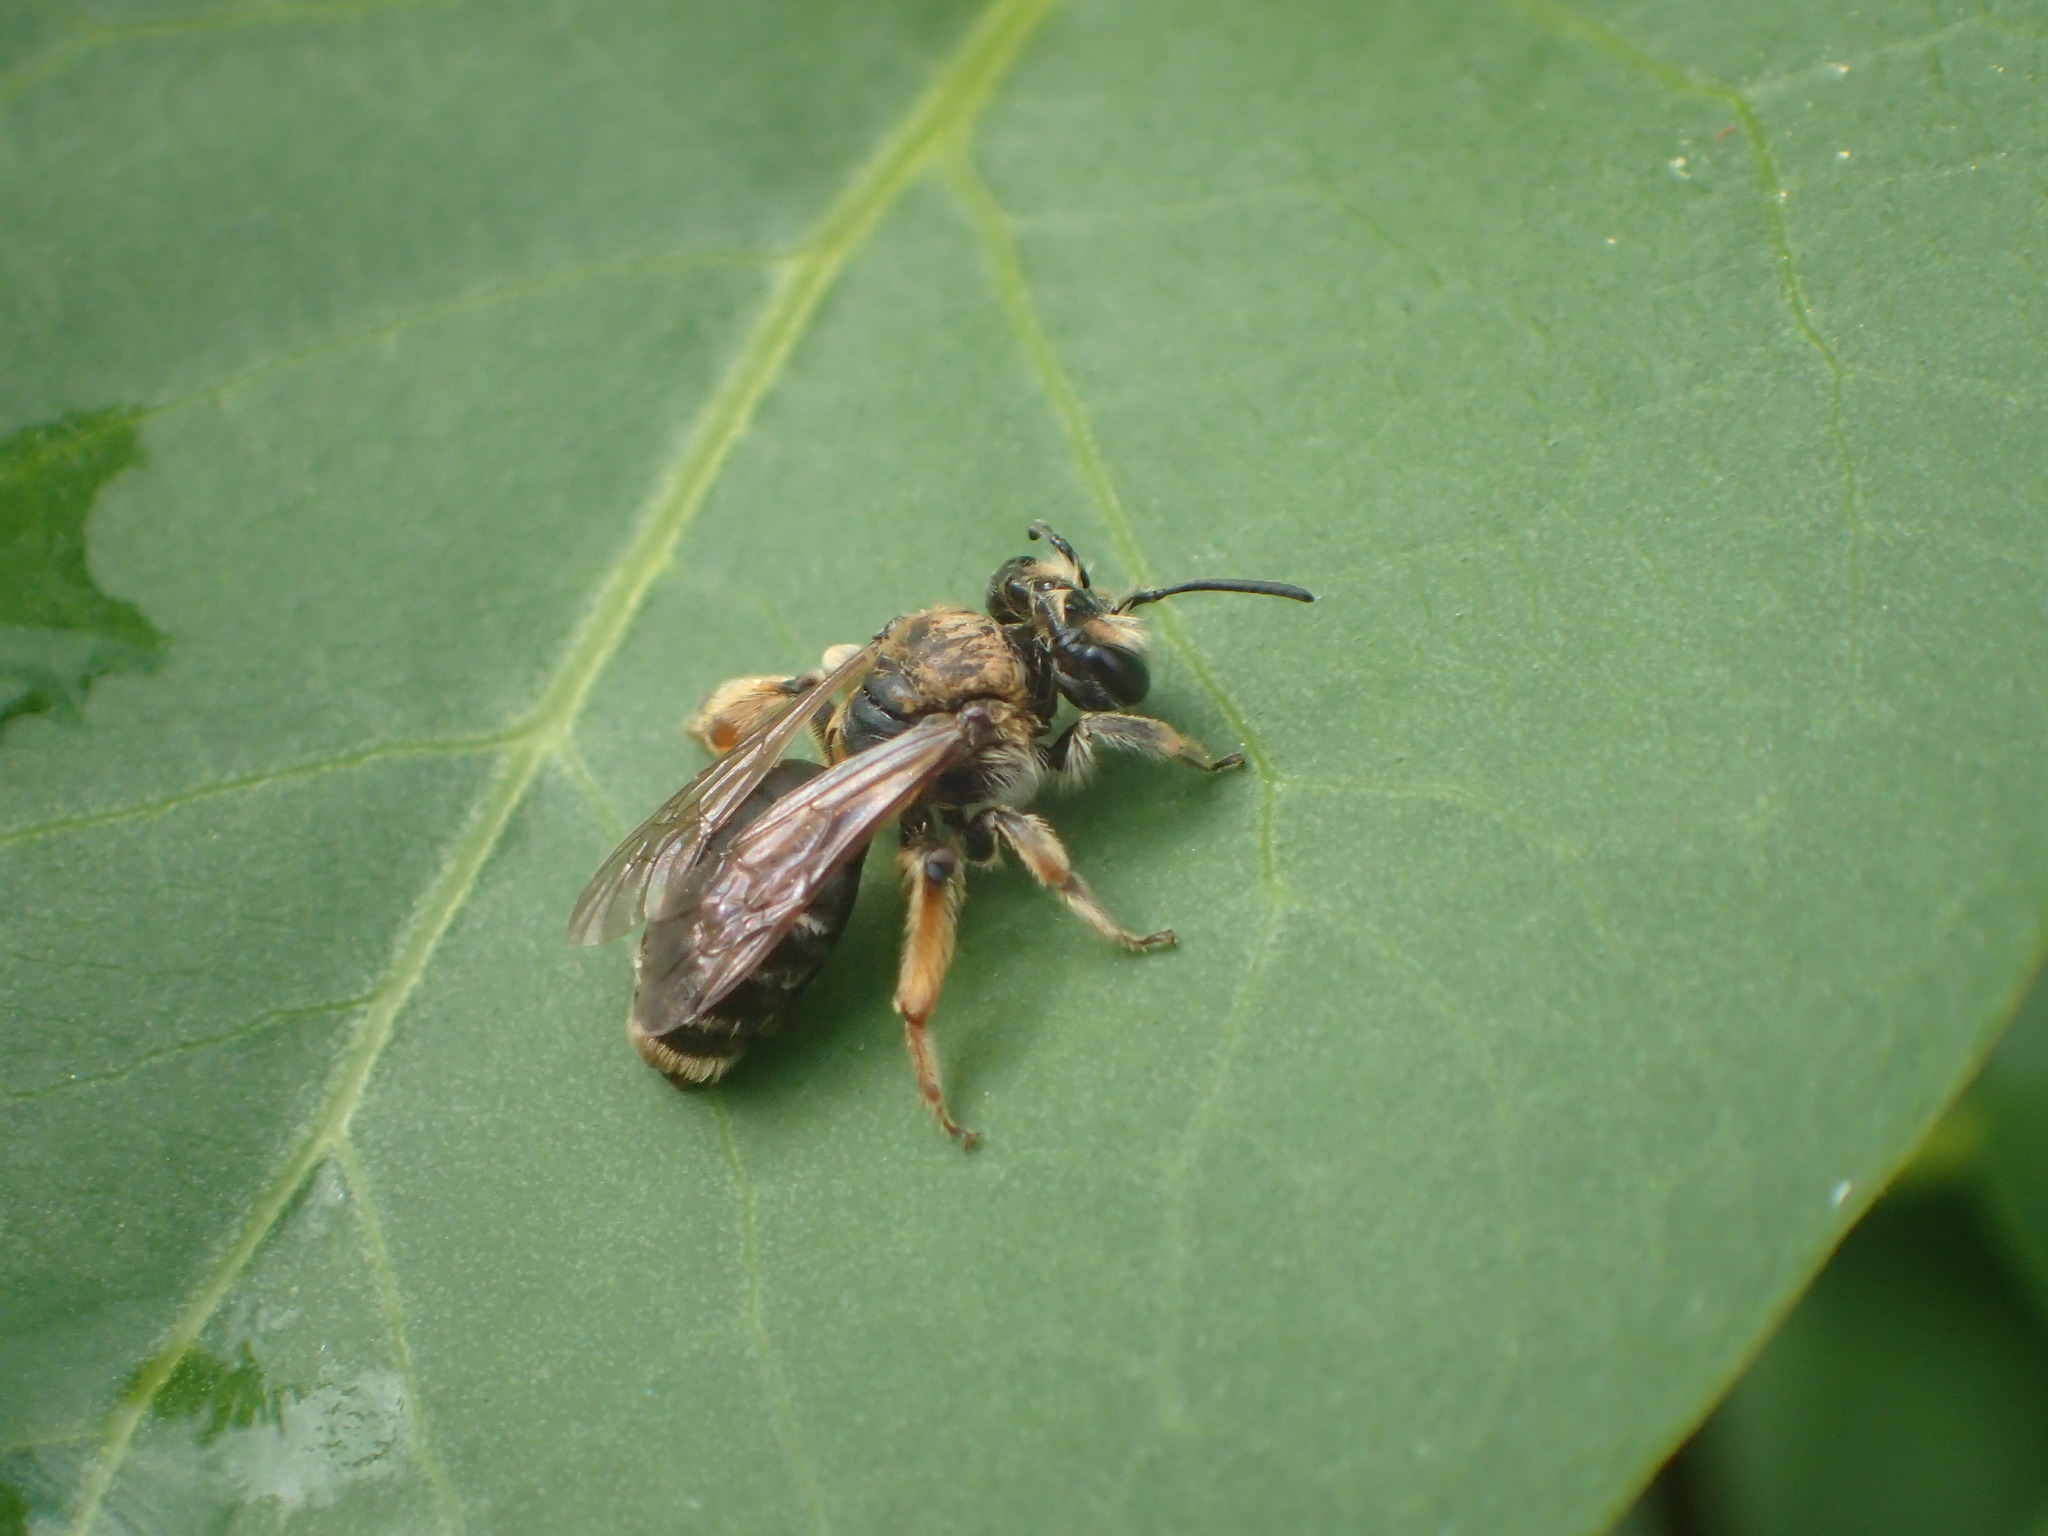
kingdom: Animalia
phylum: Arthropoda
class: Insecta
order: Hymenoptera
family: Andrenidae
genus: Andrena
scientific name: Andrena wilkella
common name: Wilke's mining bee
